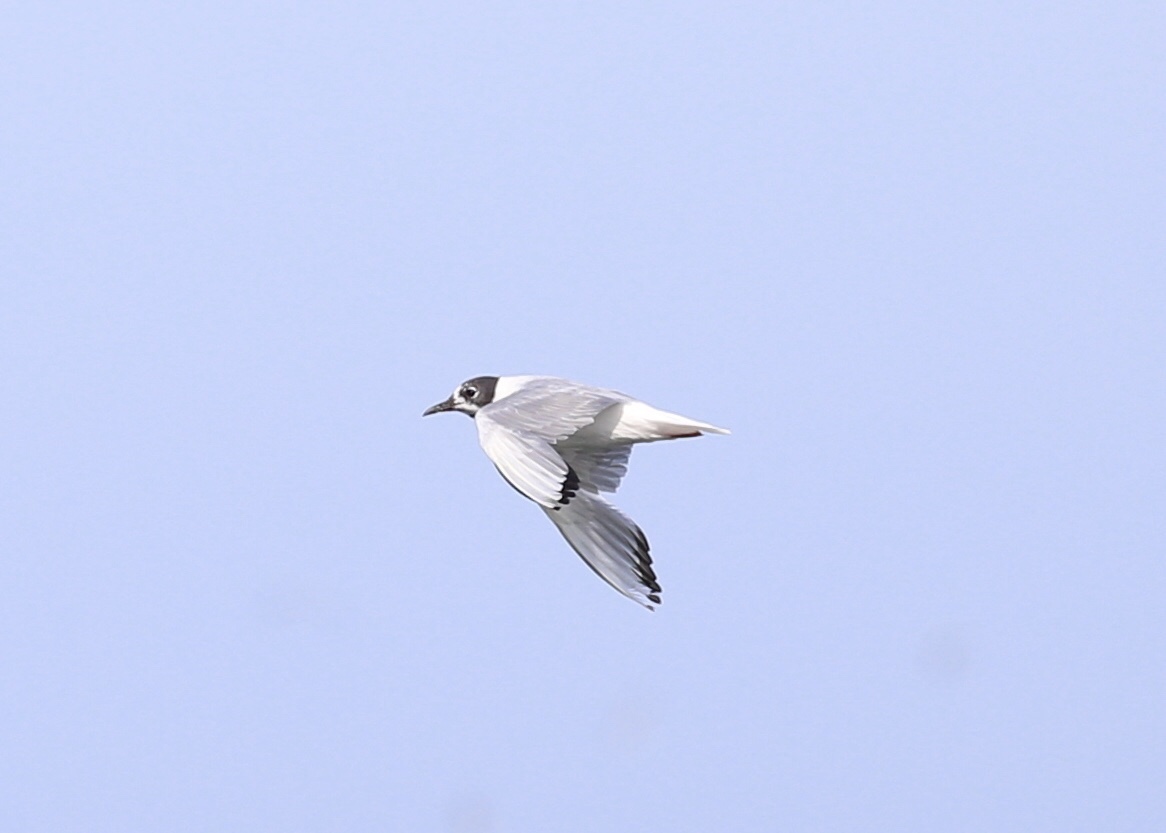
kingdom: Animalia
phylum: Chordata
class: Aves
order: Charadriiformes
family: Laridae
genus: Chroicocephalus
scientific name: Chroicocephalus philadelphia
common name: Bonaparte's gull
